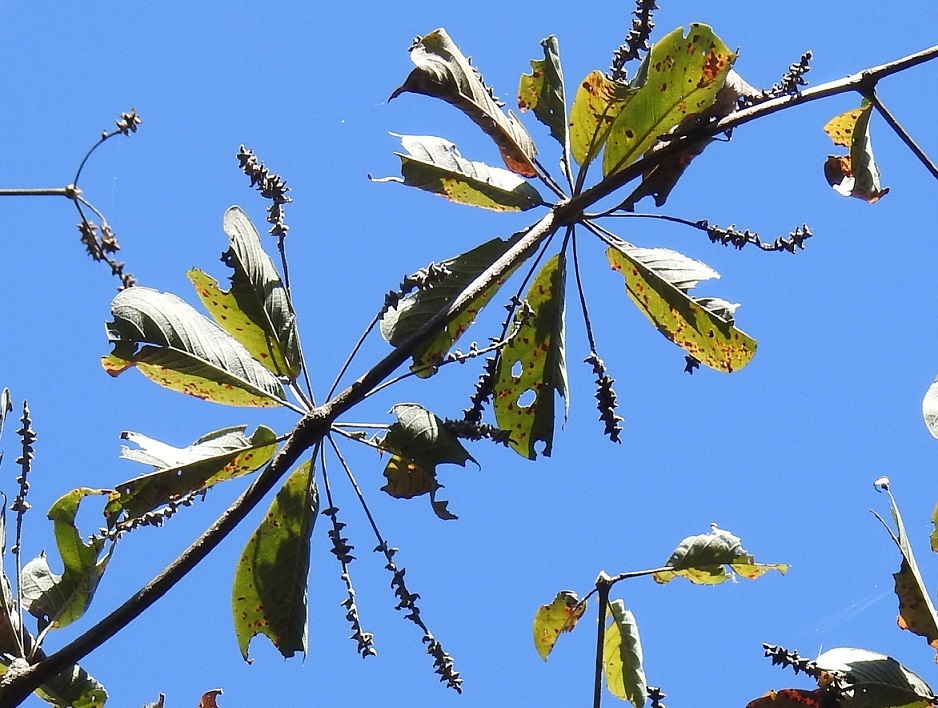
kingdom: Plantae
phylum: Tracheophyta
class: Magnoliopsida
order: Myrtales
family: Combretaceae
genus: Terminalia
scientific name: Terminalia macrostachya
